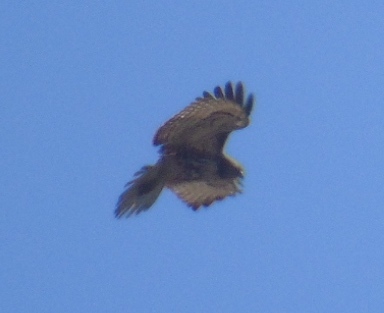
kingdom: Animalia
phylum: Chordata
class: Aves
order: Accipitriformes
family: Accipitridae
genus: Buteo
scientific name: Buteo jamaicensis
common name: Red-tailed hawk
